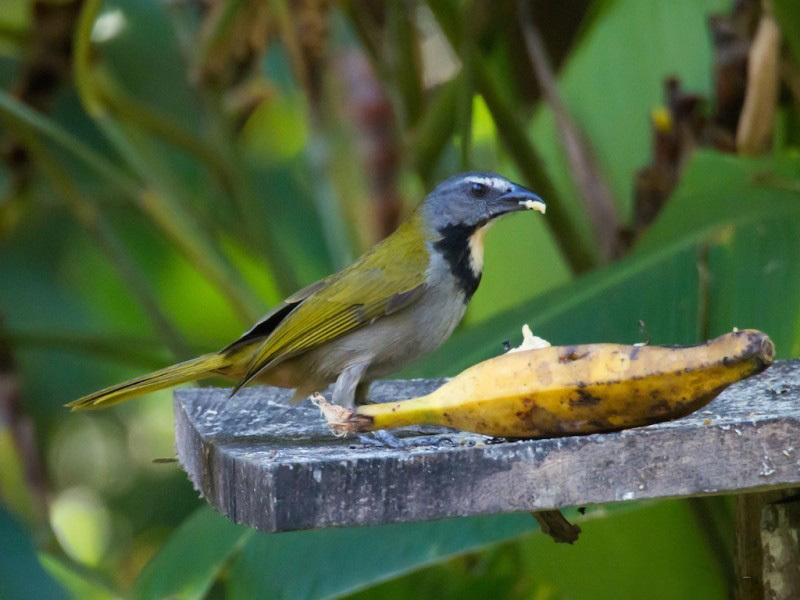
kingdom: Animalia
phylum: Chordata
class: Aves
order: Passeriformes
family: Thraupidae
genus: Saltator
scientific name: Saltator maximus
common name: Buff-throated saltator
